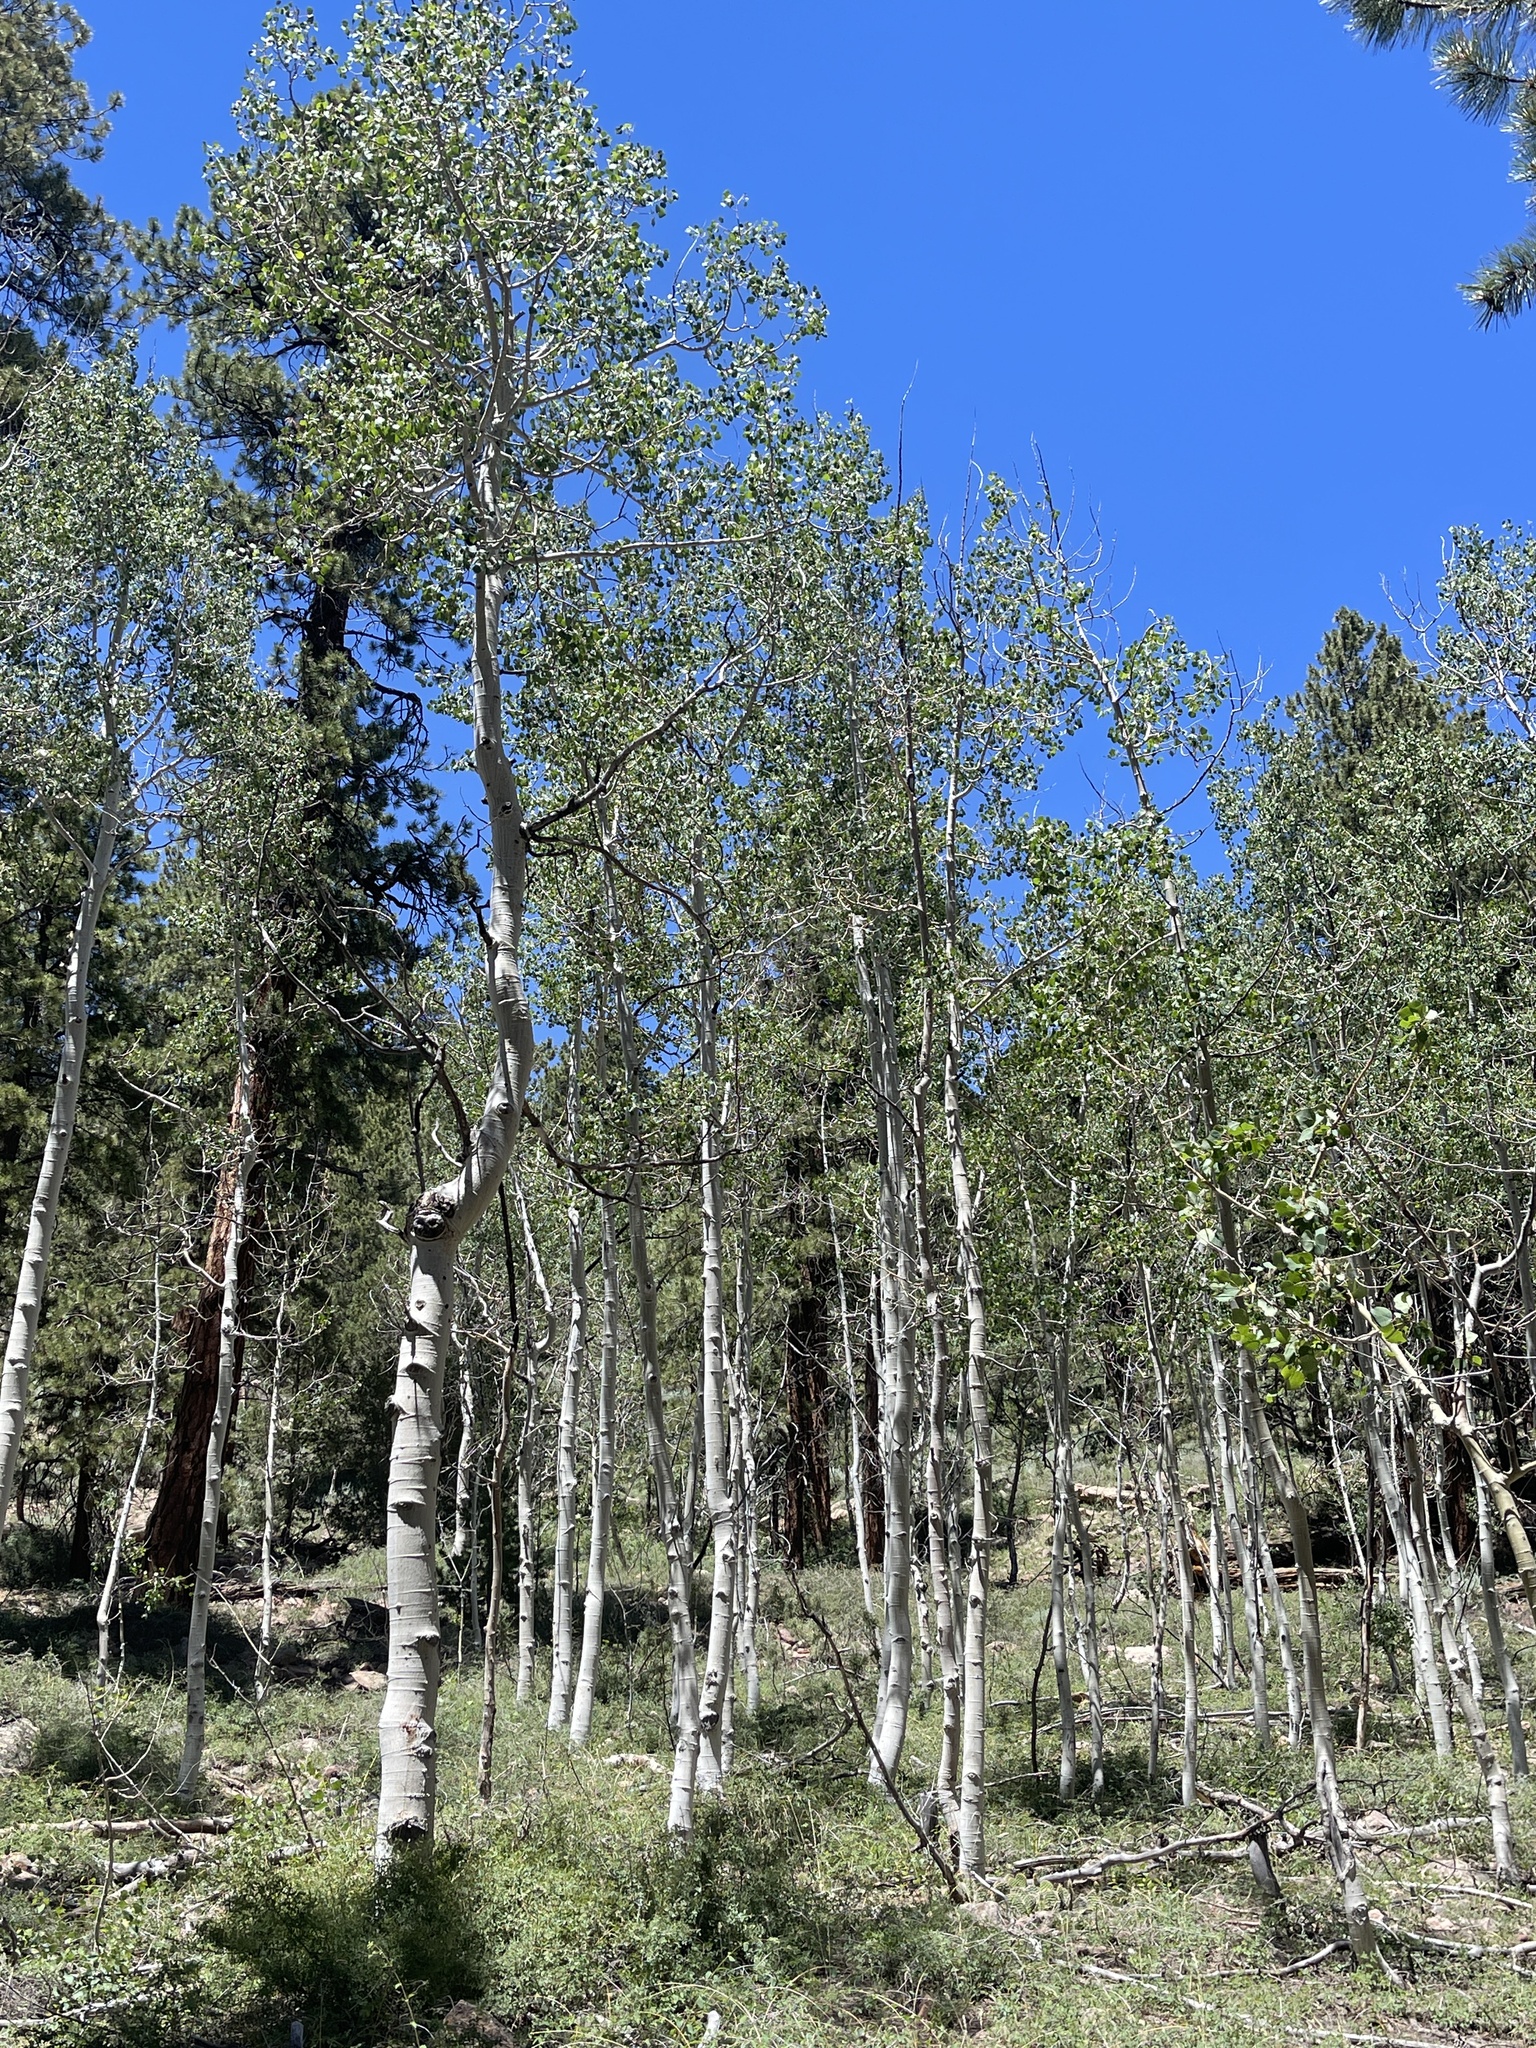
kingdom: Plantae
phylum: Tracheophyta
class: Magnoliopsida
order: Malpighiales
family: Salicaceae
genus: Populus
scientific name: Populus tremuloides
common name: Quaking aspen
